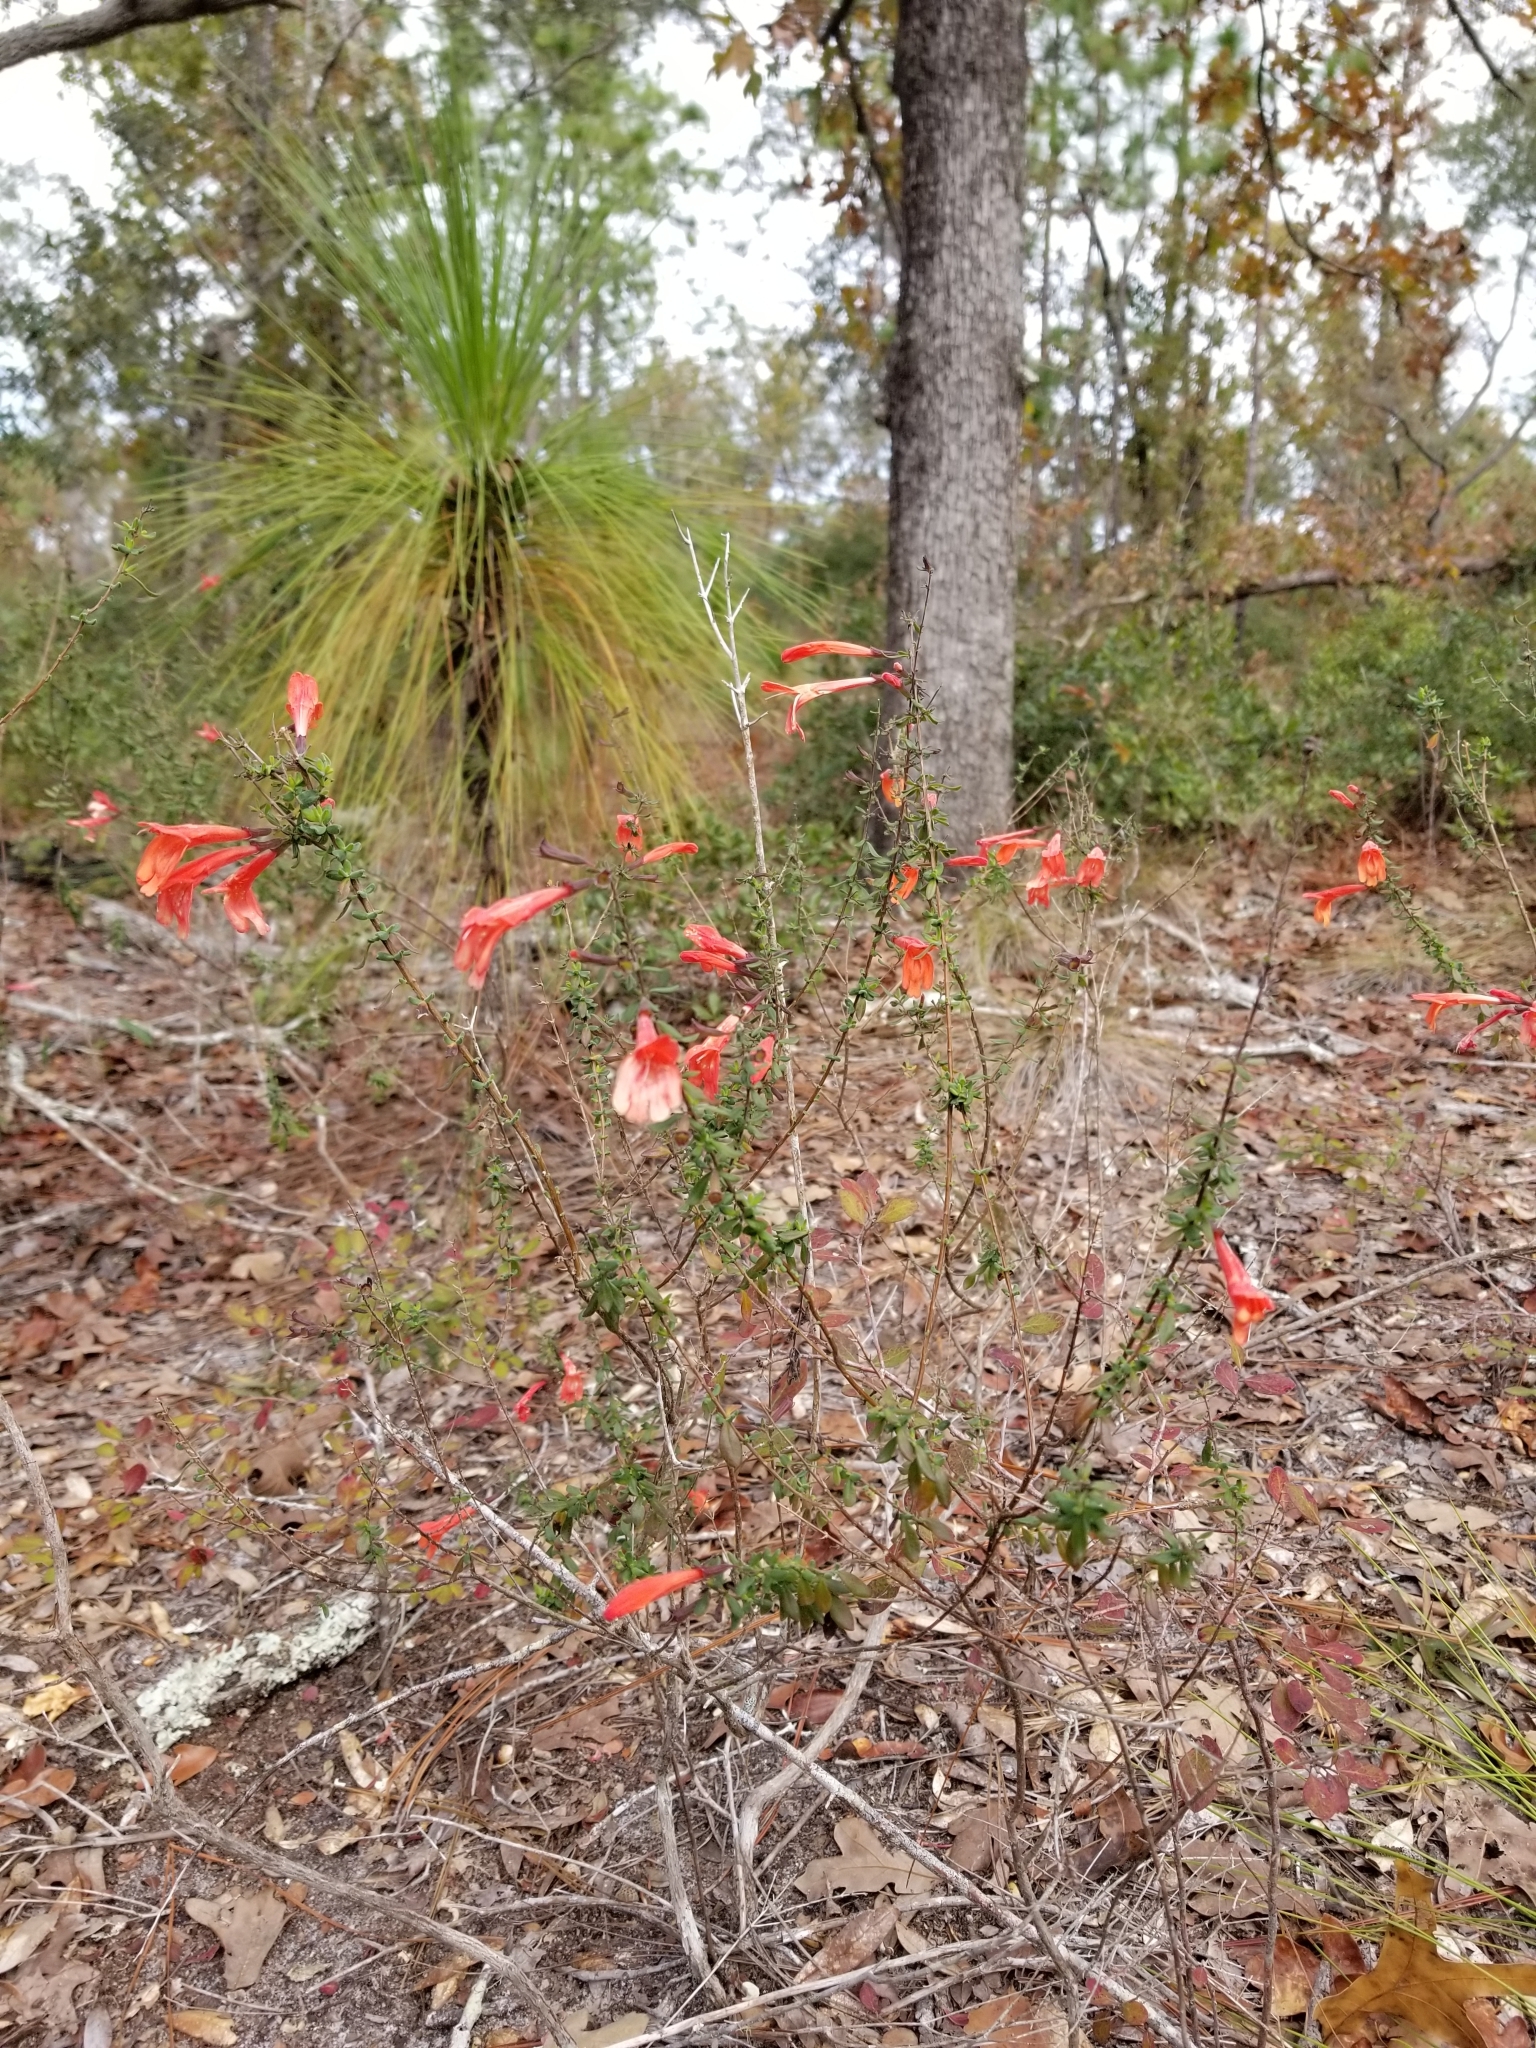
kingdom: Plantae
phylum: Tracheophyta
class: Magnoliopsida
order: Lamiales
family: Lamiaceae
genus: Clinopodium
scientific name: Clinopodium coccineum
